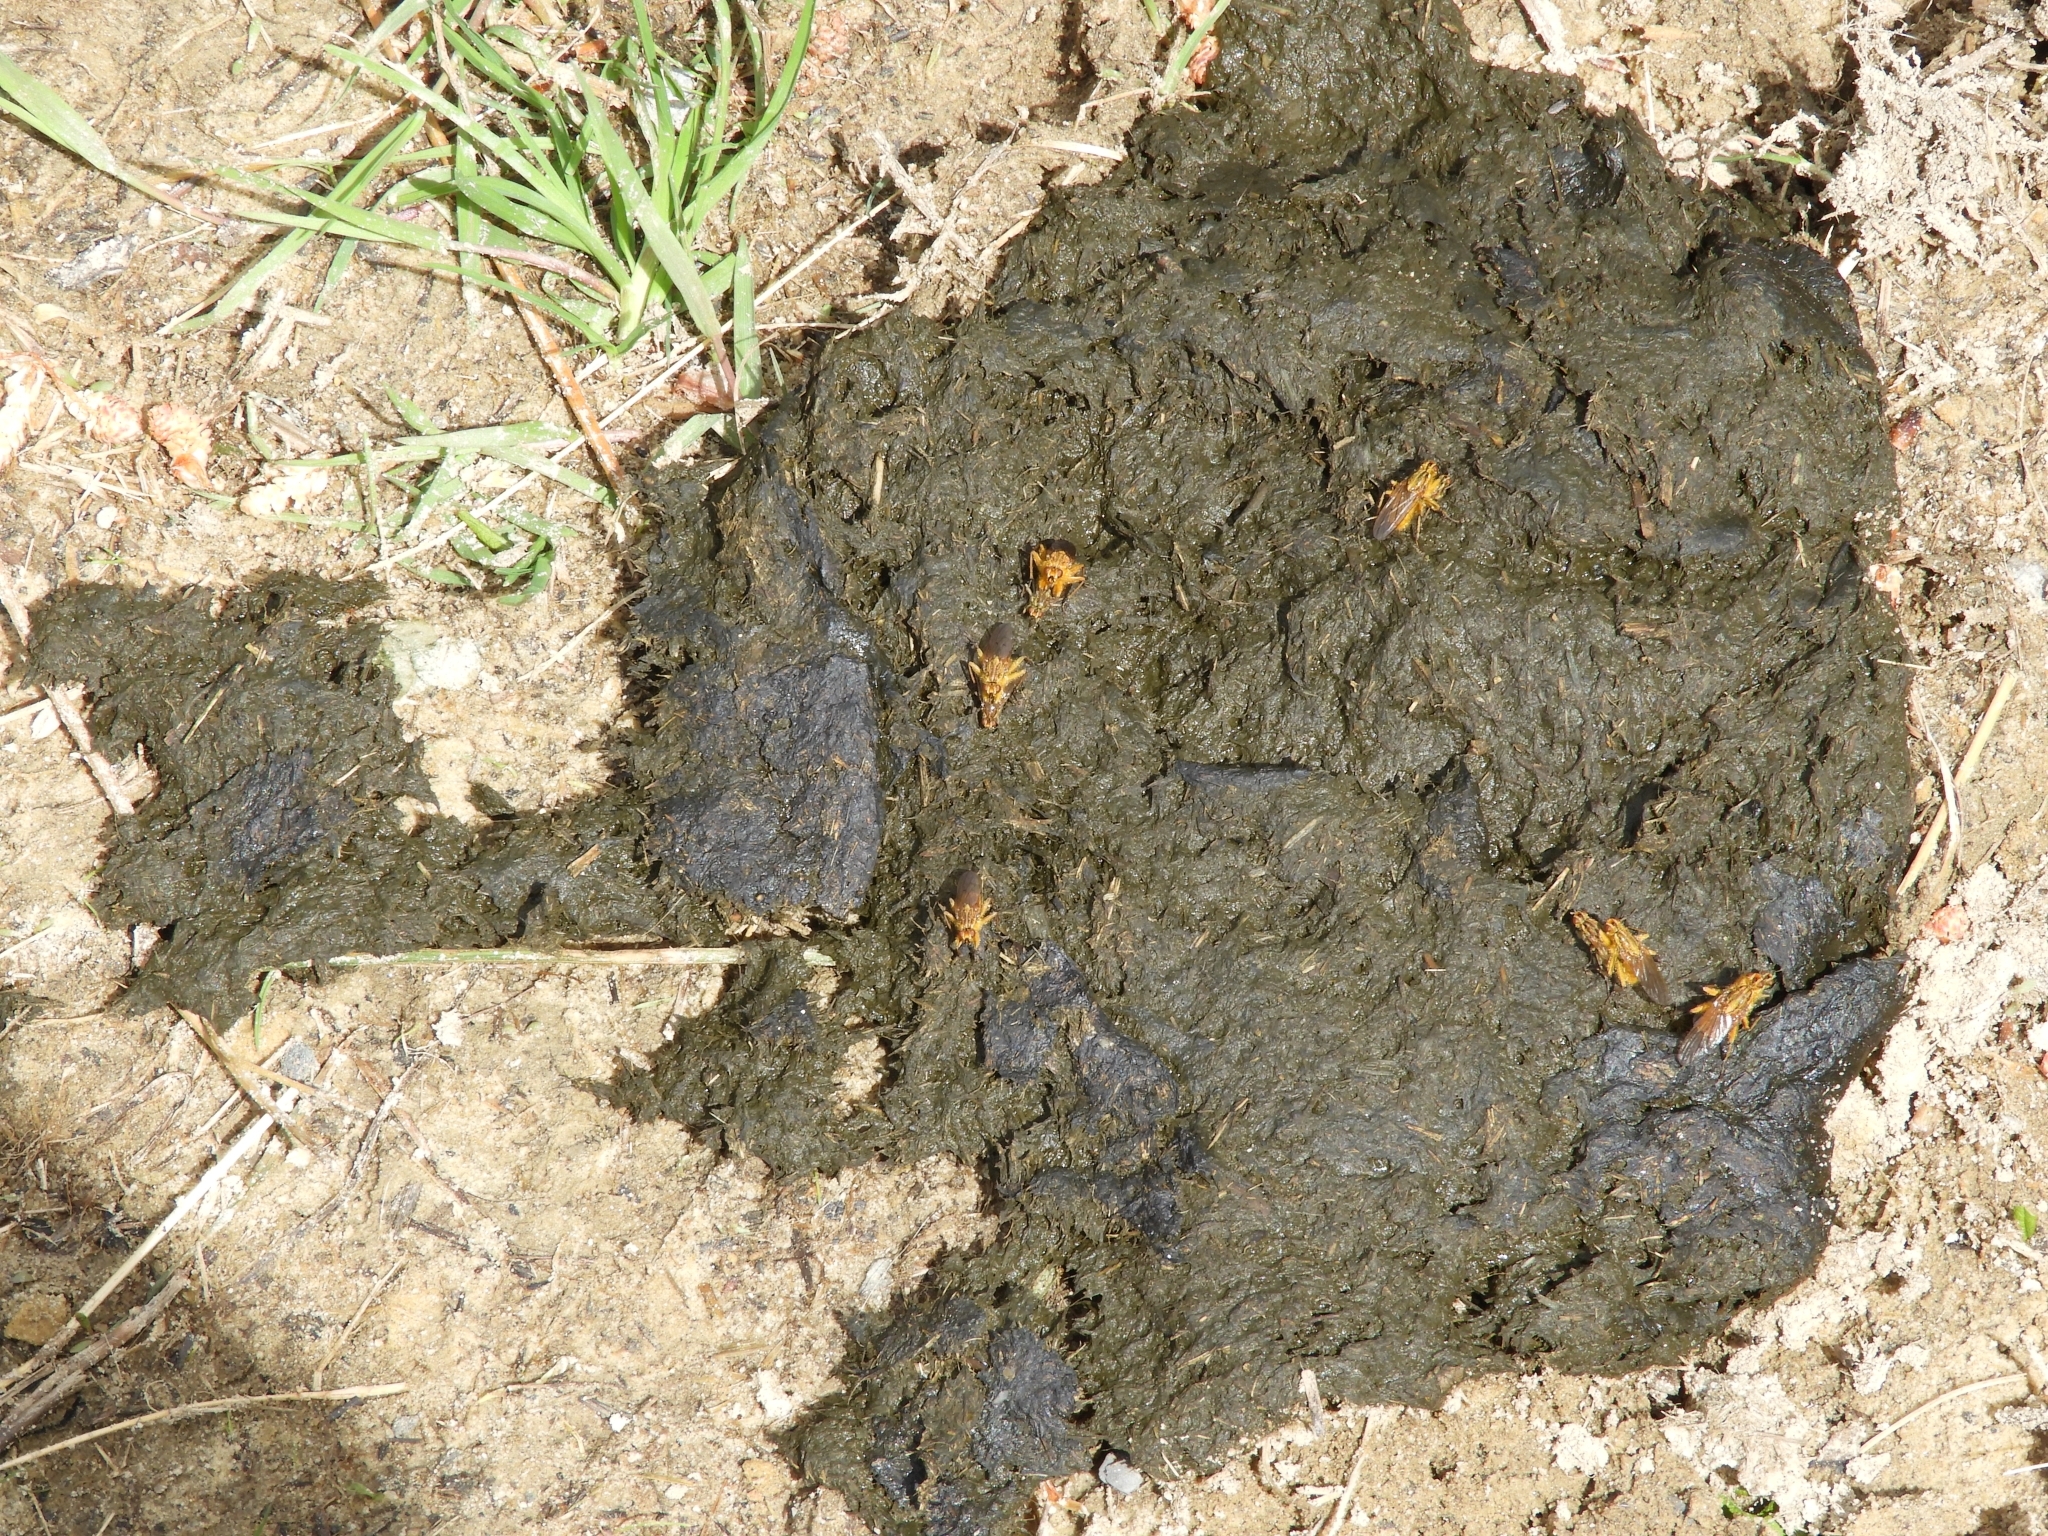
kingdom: Animalia
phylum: Arthropoda
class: Insecta
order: Diptera
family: Scathophagidae
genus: Scathophaga
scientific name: Scathophaga stercoraria
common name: Yellow dung fly
